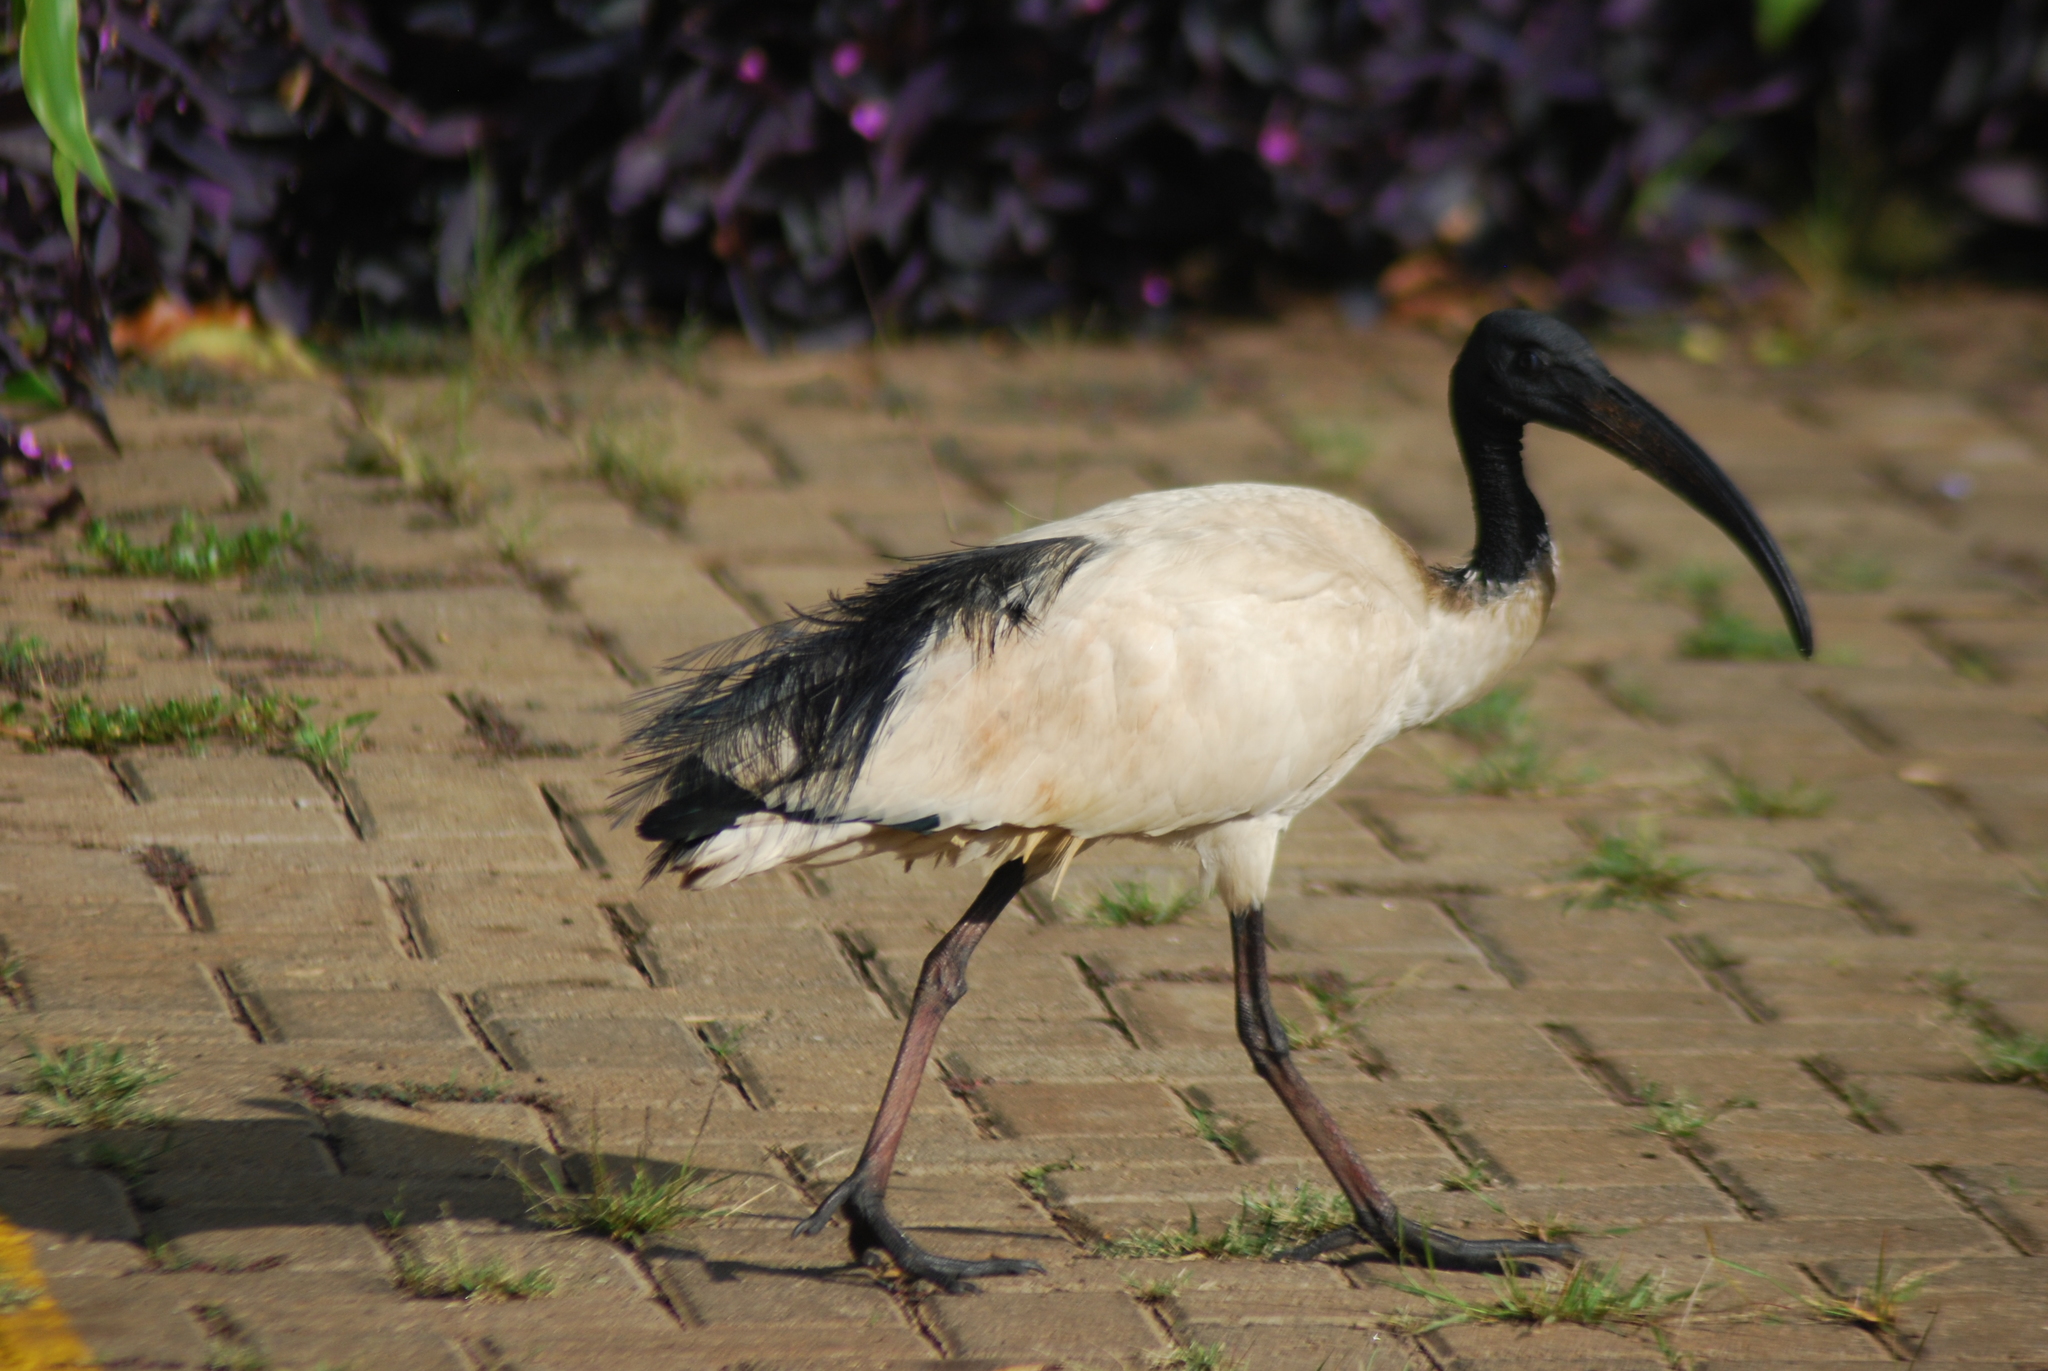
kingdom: Animalia
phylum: Chordata
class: Aves
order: Pelecaniformes
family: Threskiornithidae
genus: Threskiornis
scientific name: Threskiornis aethiopicus
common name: Sacred ibis
